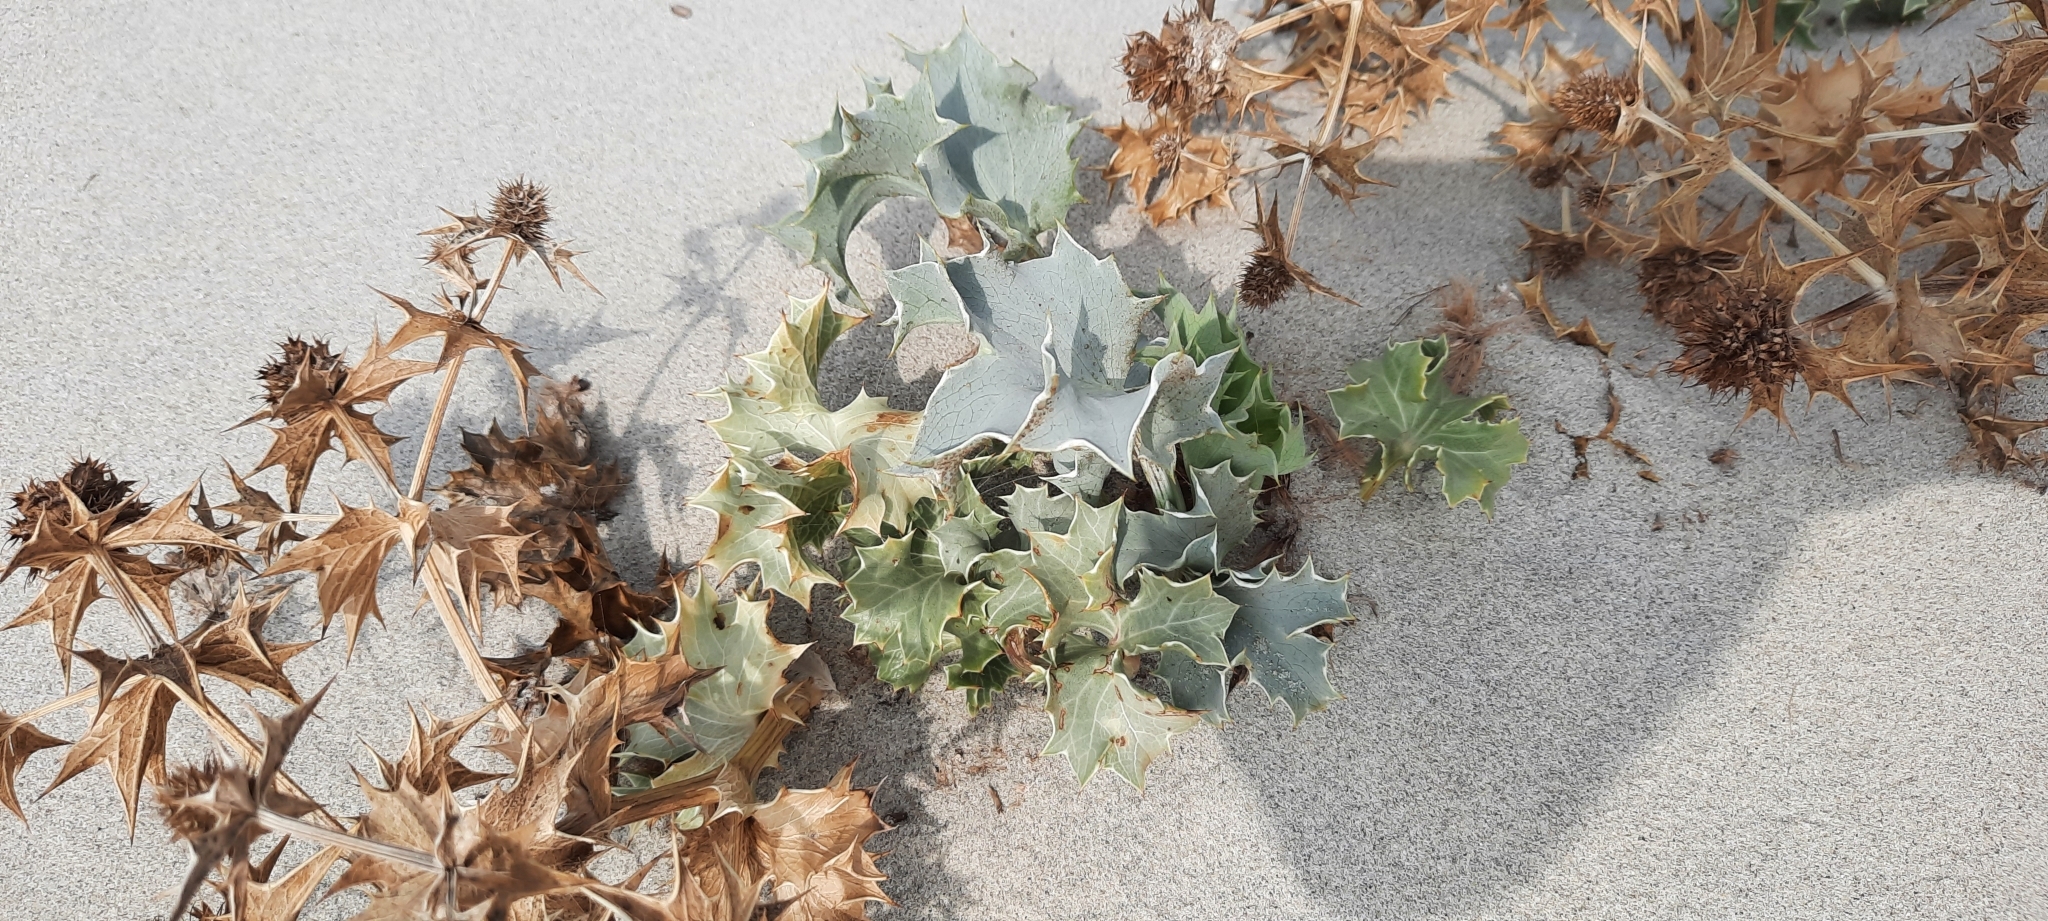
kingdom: Plantae
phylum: Tracheophyta
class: Magnoliopsida
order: Apiales
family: Apiaceae
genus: Eryngium
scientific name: Eryngium maritimum
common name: Sea-holly
